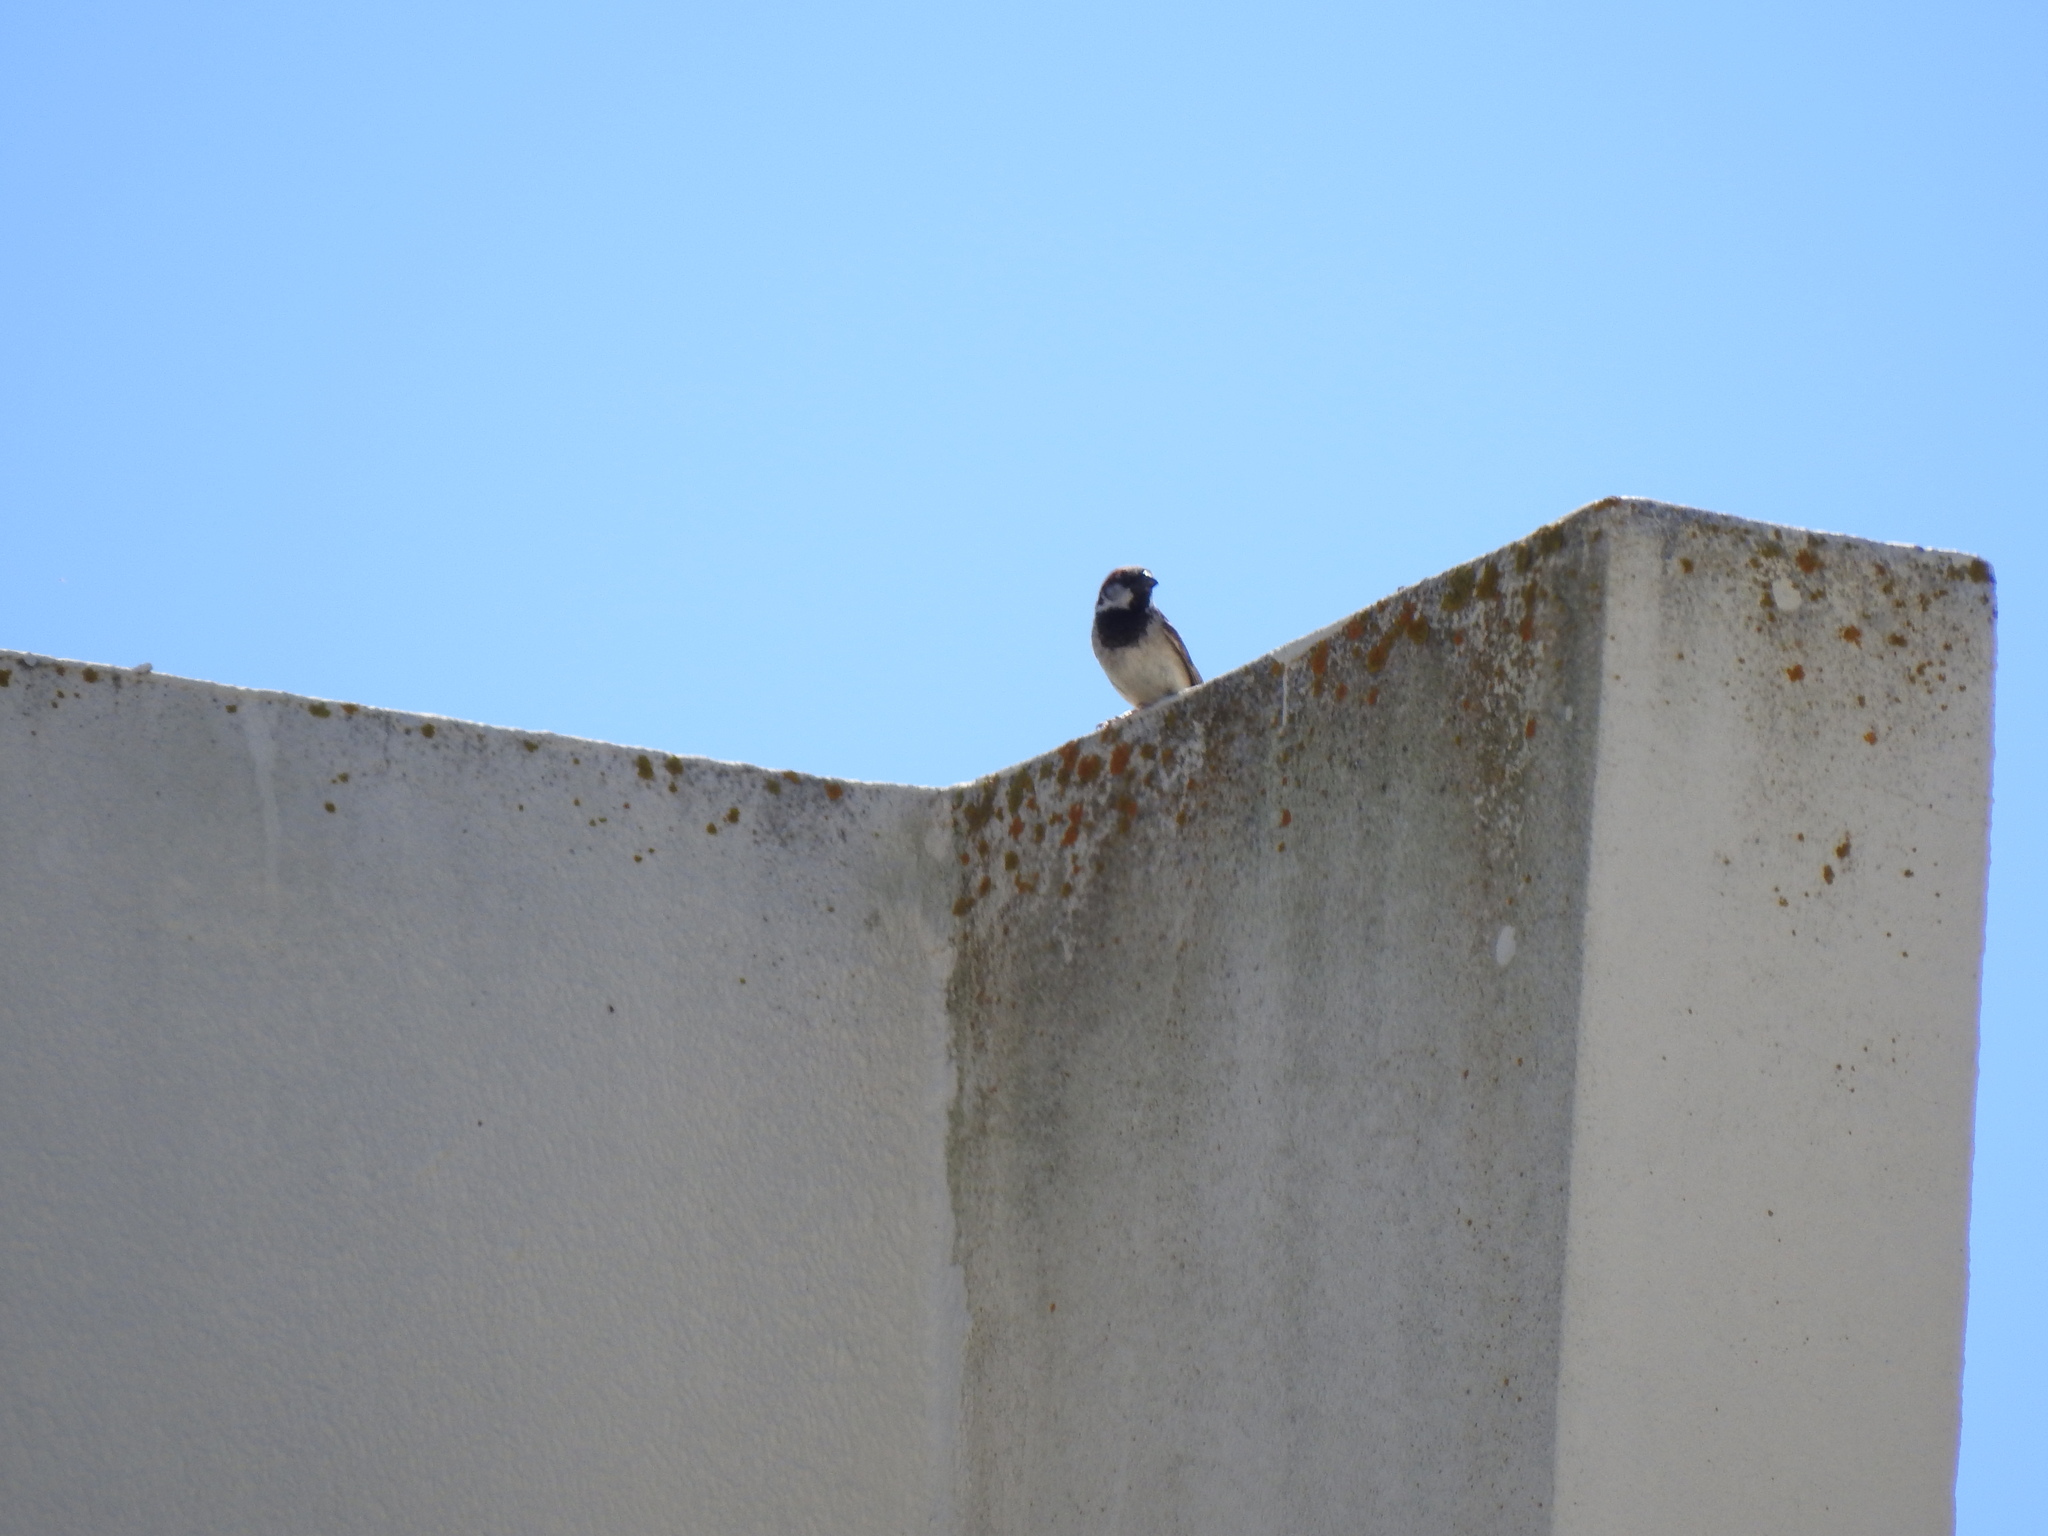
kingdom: Animalia
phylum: Chordata
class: Aves
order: Passeriformes
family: Passeridae
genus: Passer
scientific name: Passer domesticus
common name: House sparrow
